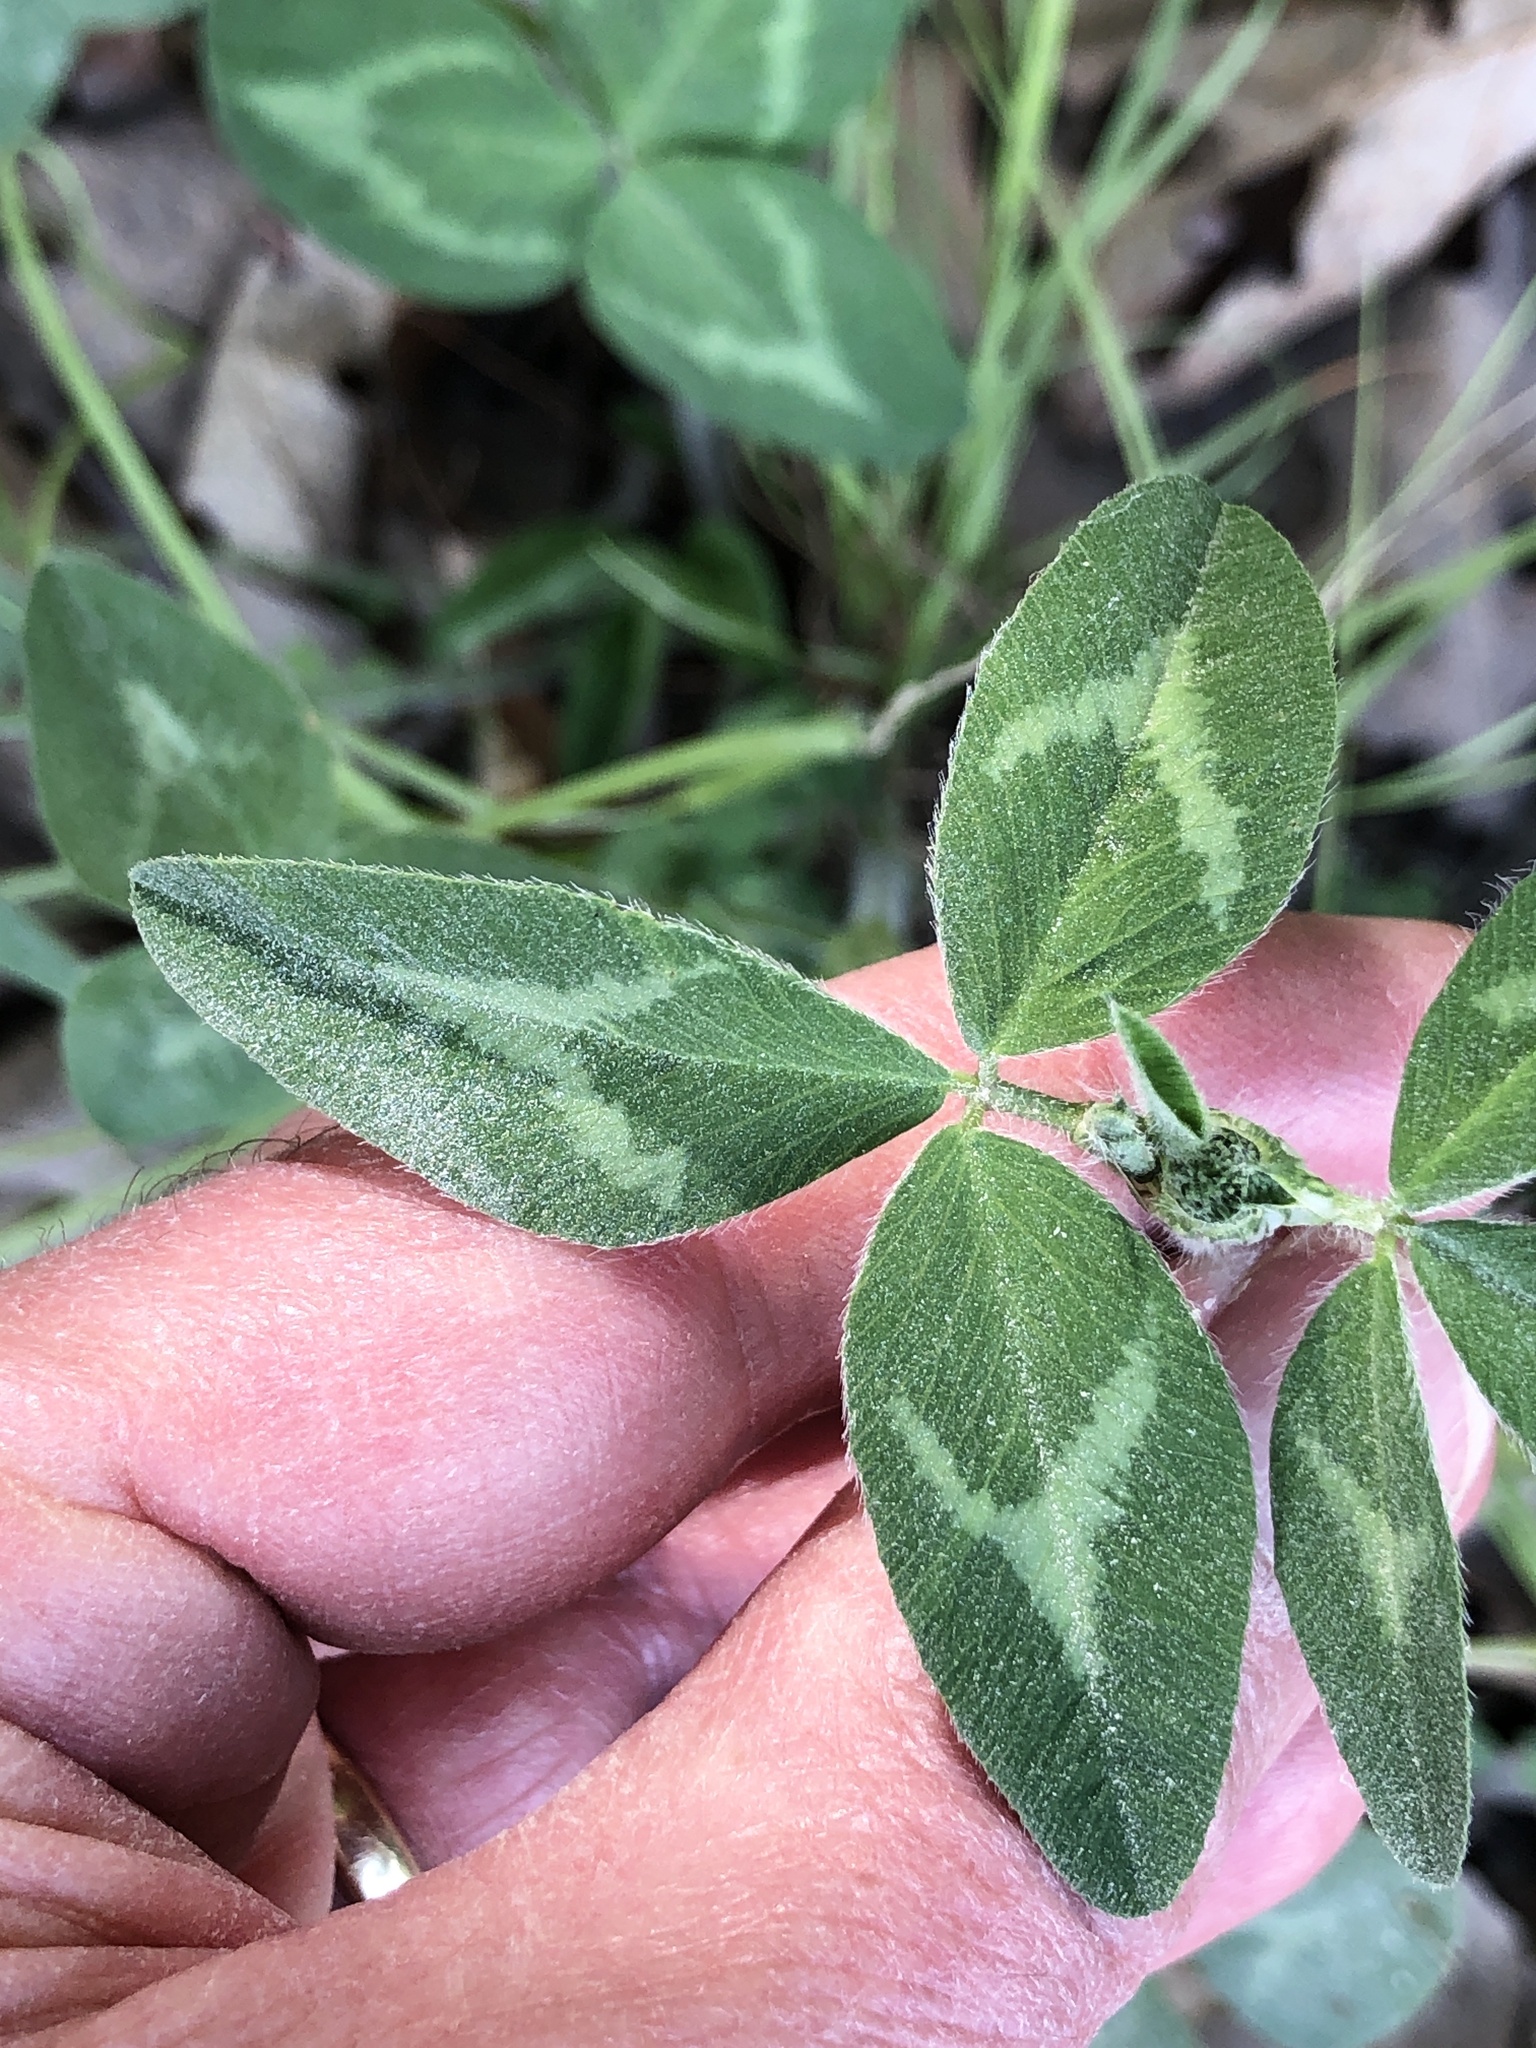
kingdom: Plantae
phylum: Tracheophyta
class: Magnoliopsida
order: Fabales
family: Fabaceae
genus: Trifolium
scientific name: Trifolium pratense
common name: Red clover
